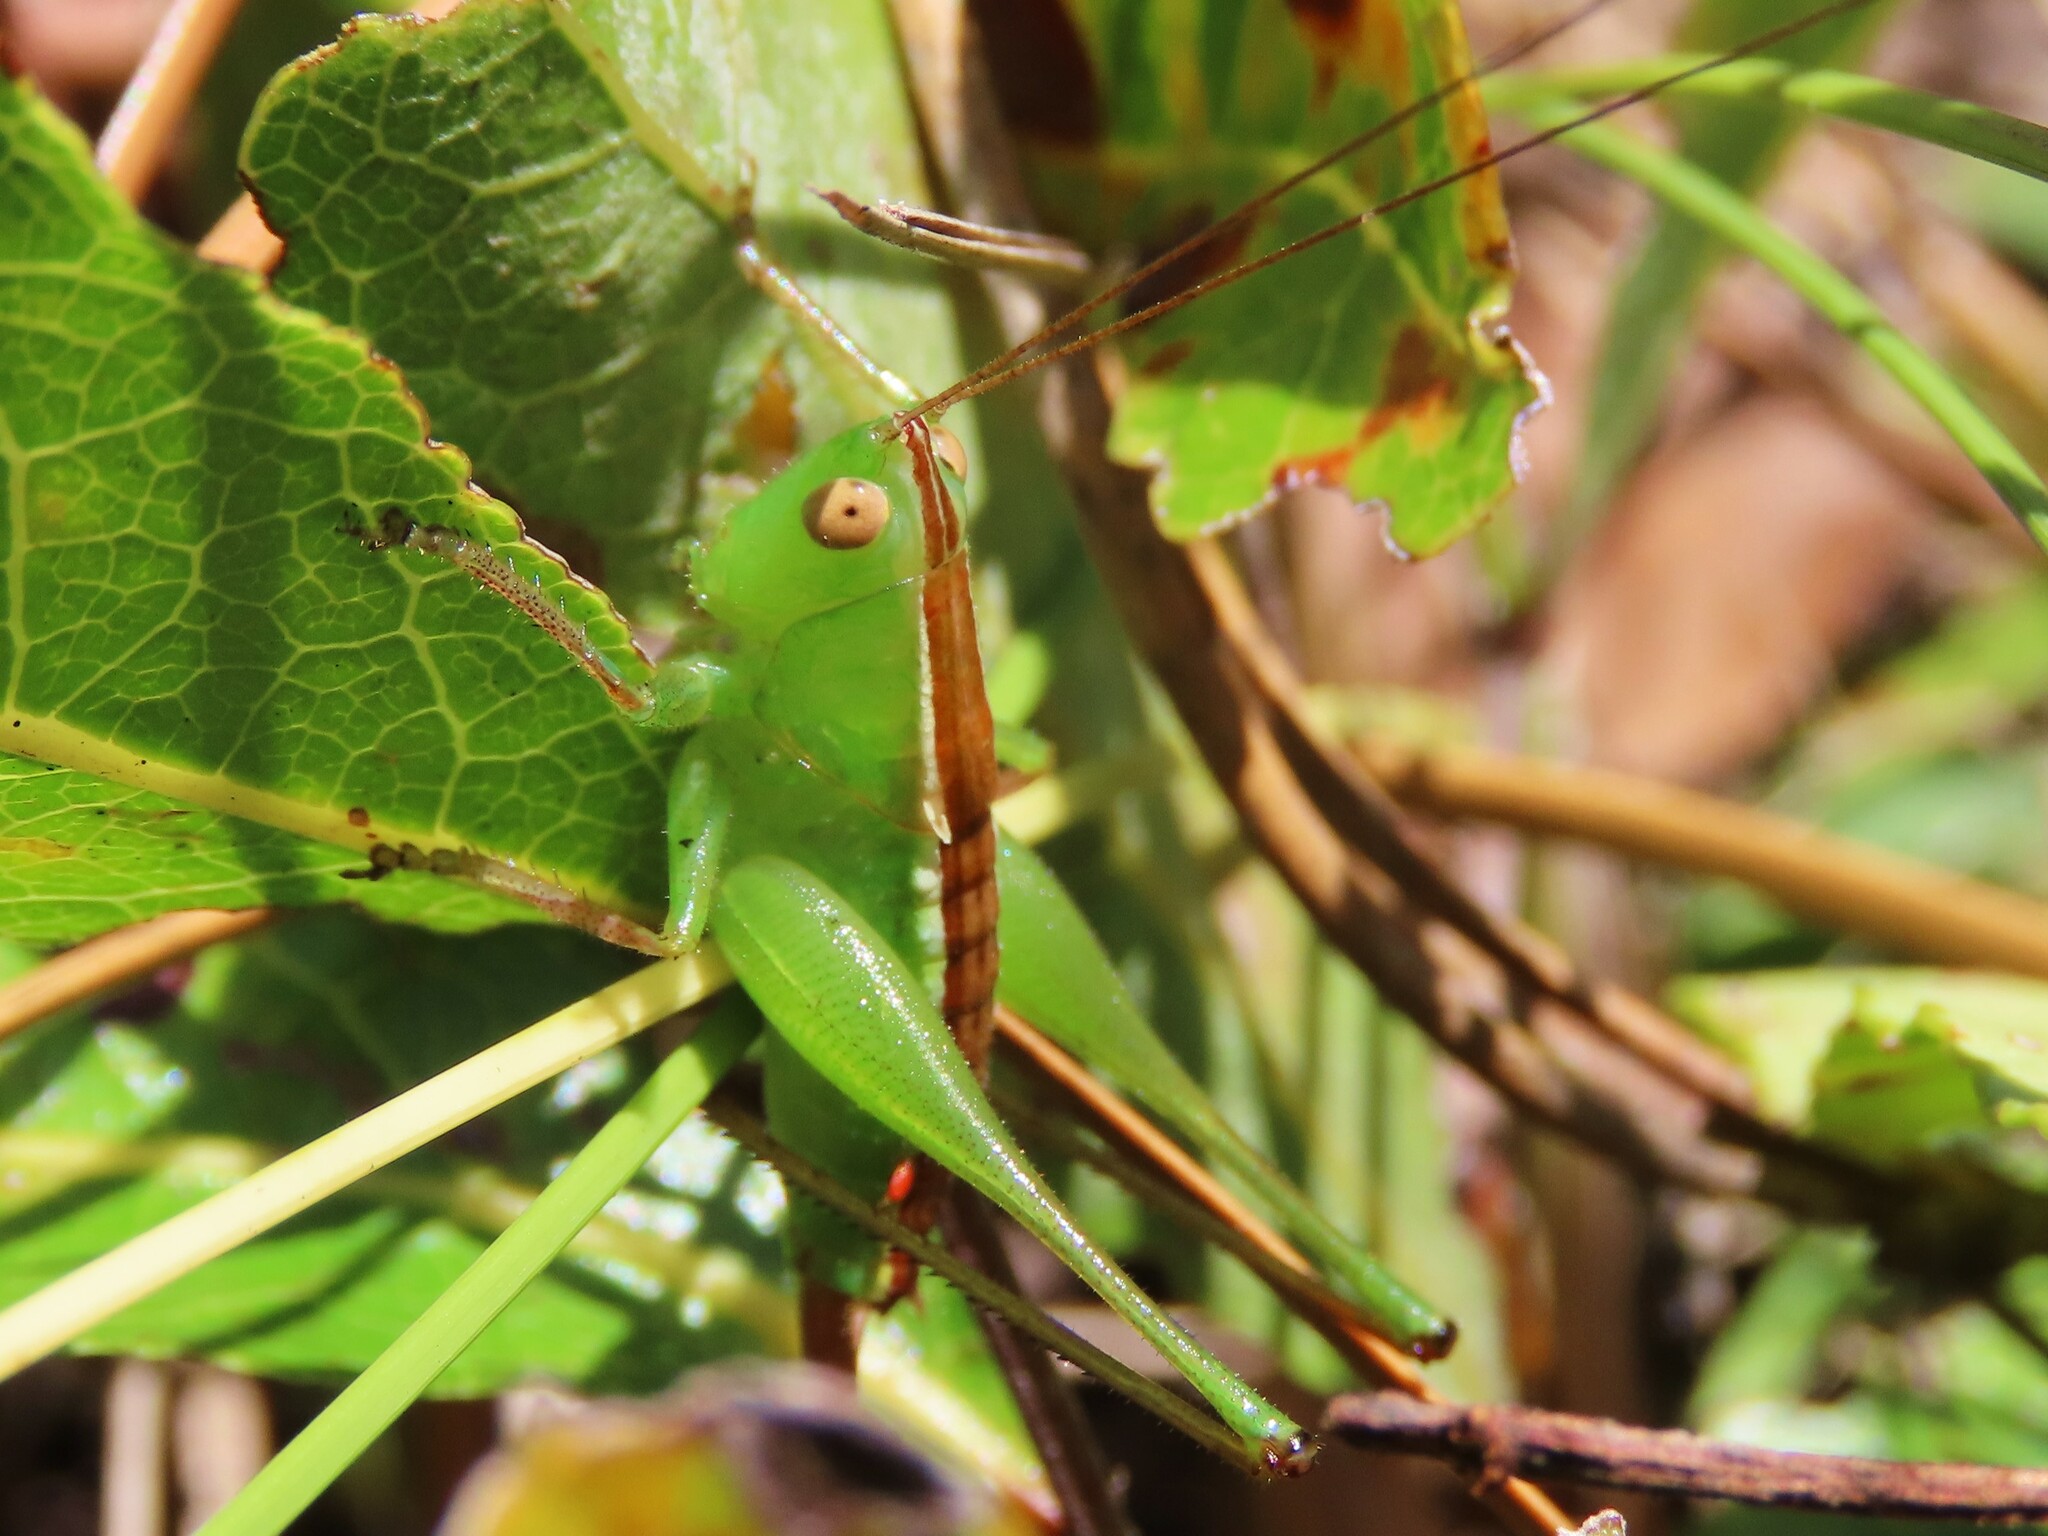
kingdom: Animalia
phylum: Arthropoda
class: Insecta
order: Orthoptera
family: Tettigoniidae
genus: Odontoxiphidium
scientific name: Odontoxiphidium apterum
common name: Wingless meadow katydid
